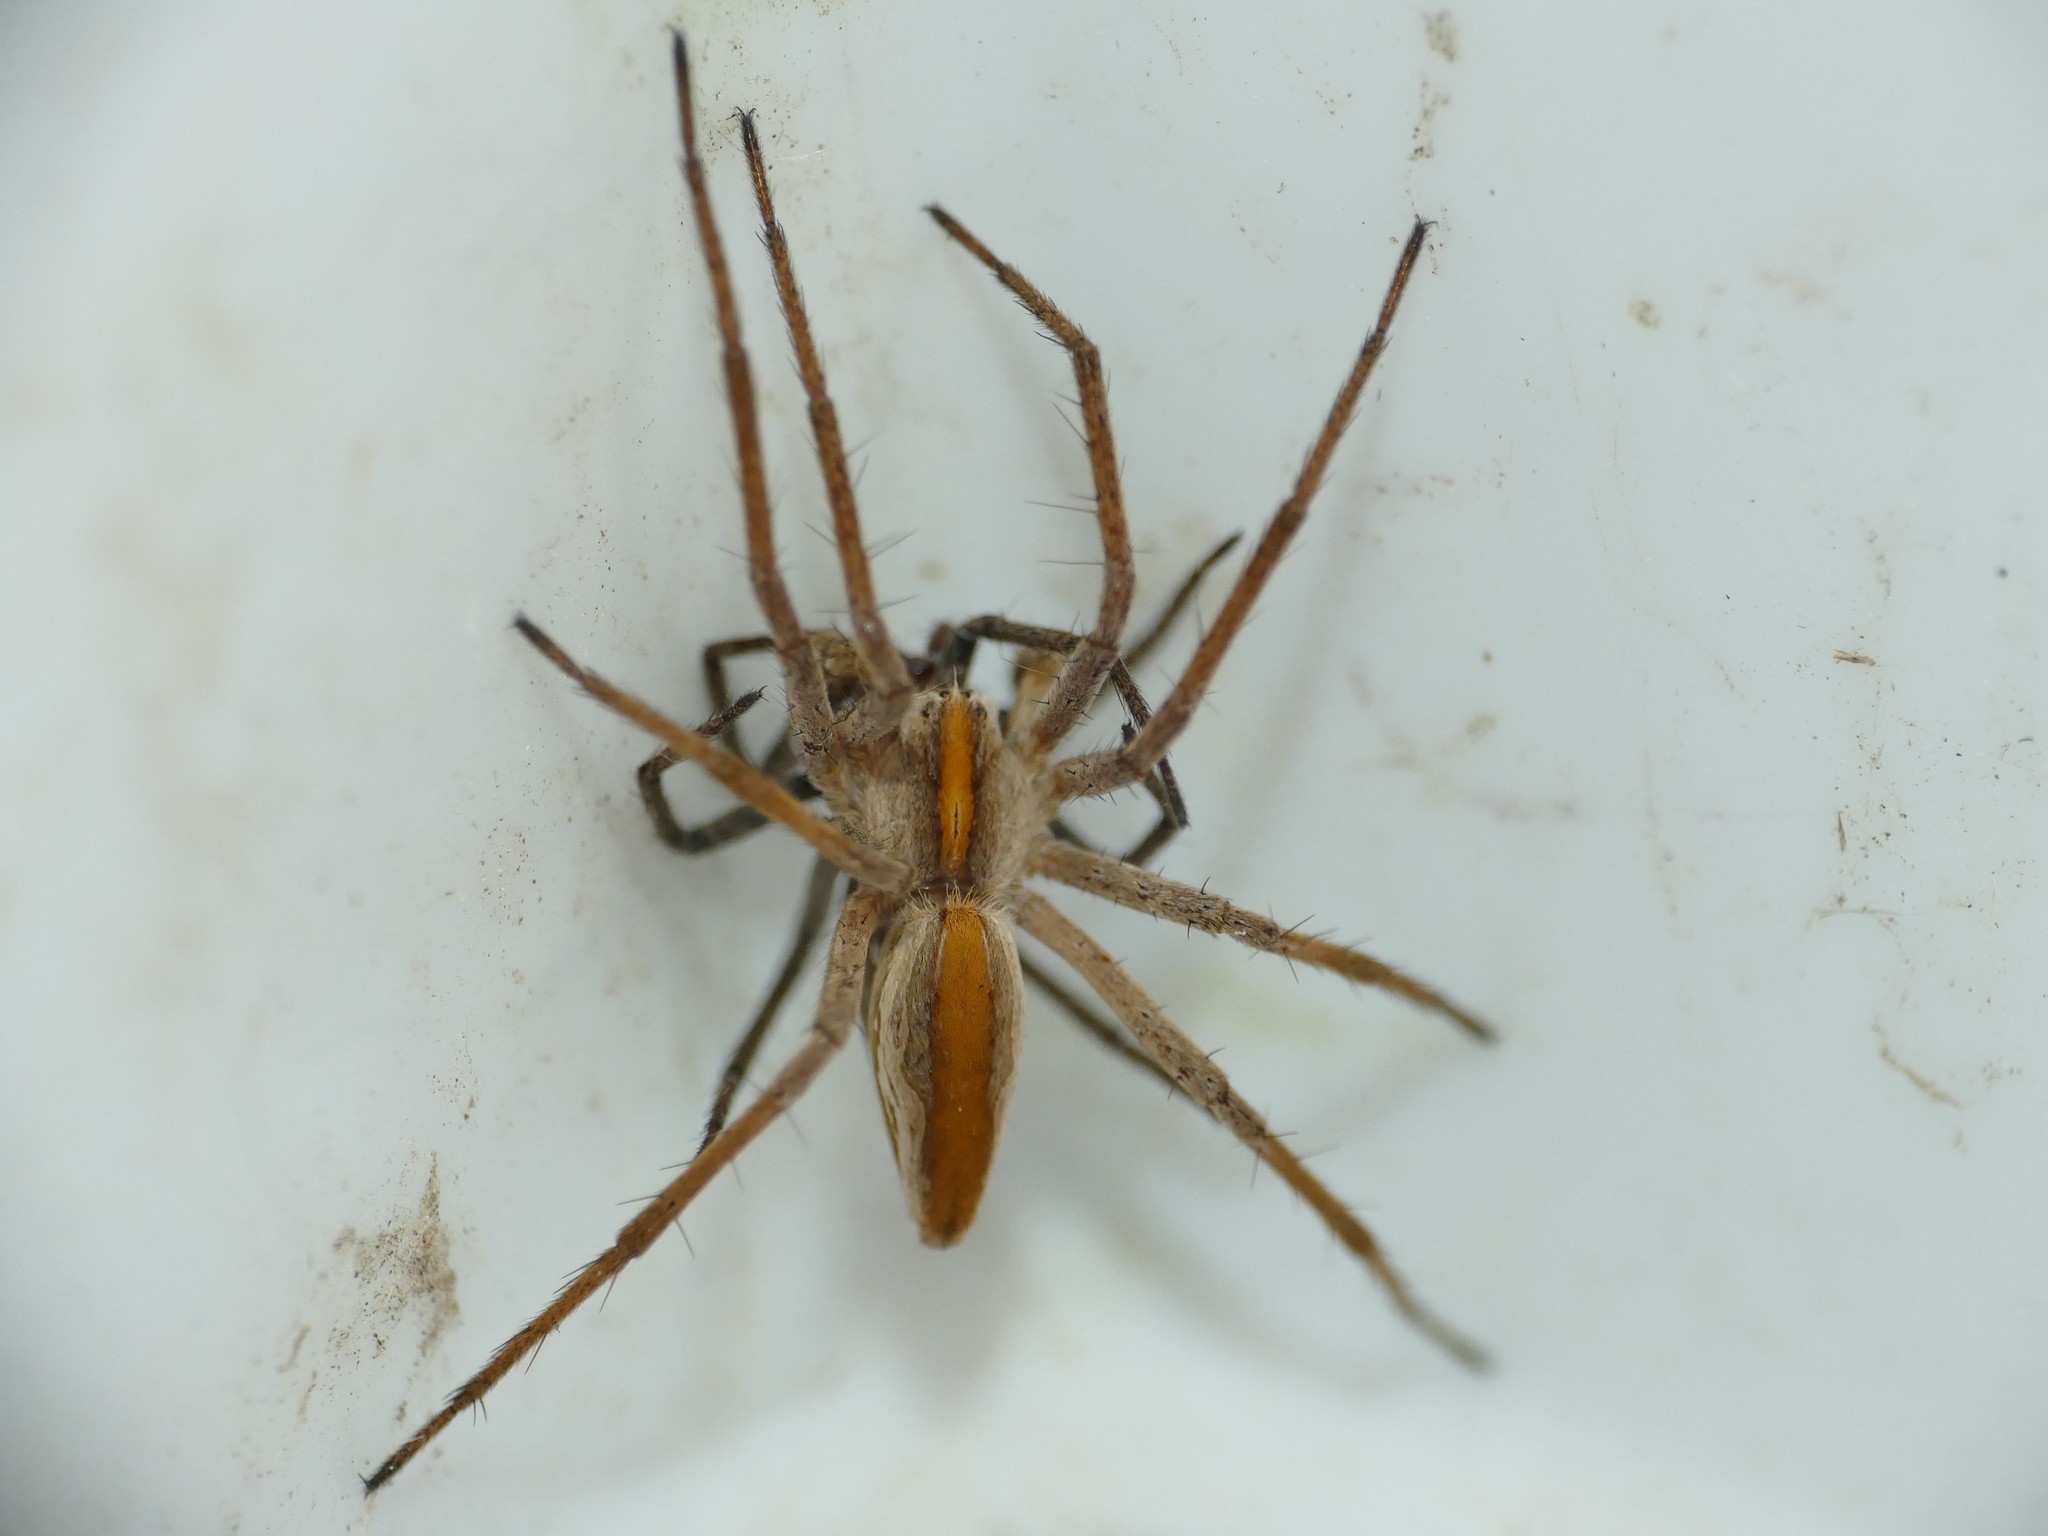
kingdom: Animalia
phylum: Arthropoda
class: Arachnida
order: Araneae
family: Pisauridae
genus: Pisaura
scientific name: Pisaura mirabilis
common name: Tent spider
